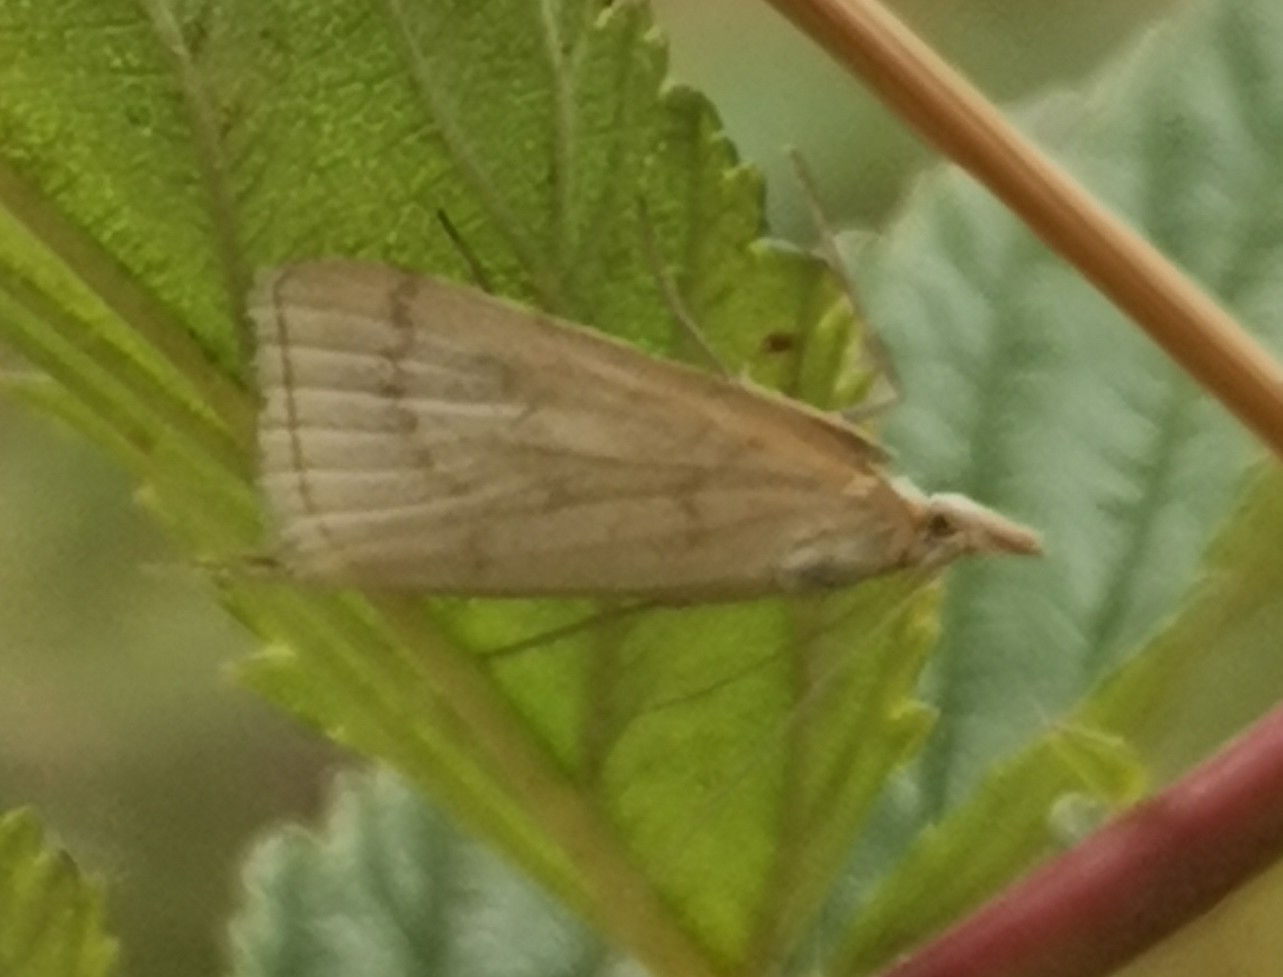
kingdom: Animalia
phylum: Arthropoda
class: Insecta
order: Lepidoptera
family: Crambidae
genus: Udea
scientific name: Udea lutealis
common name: Pale straw pearl
